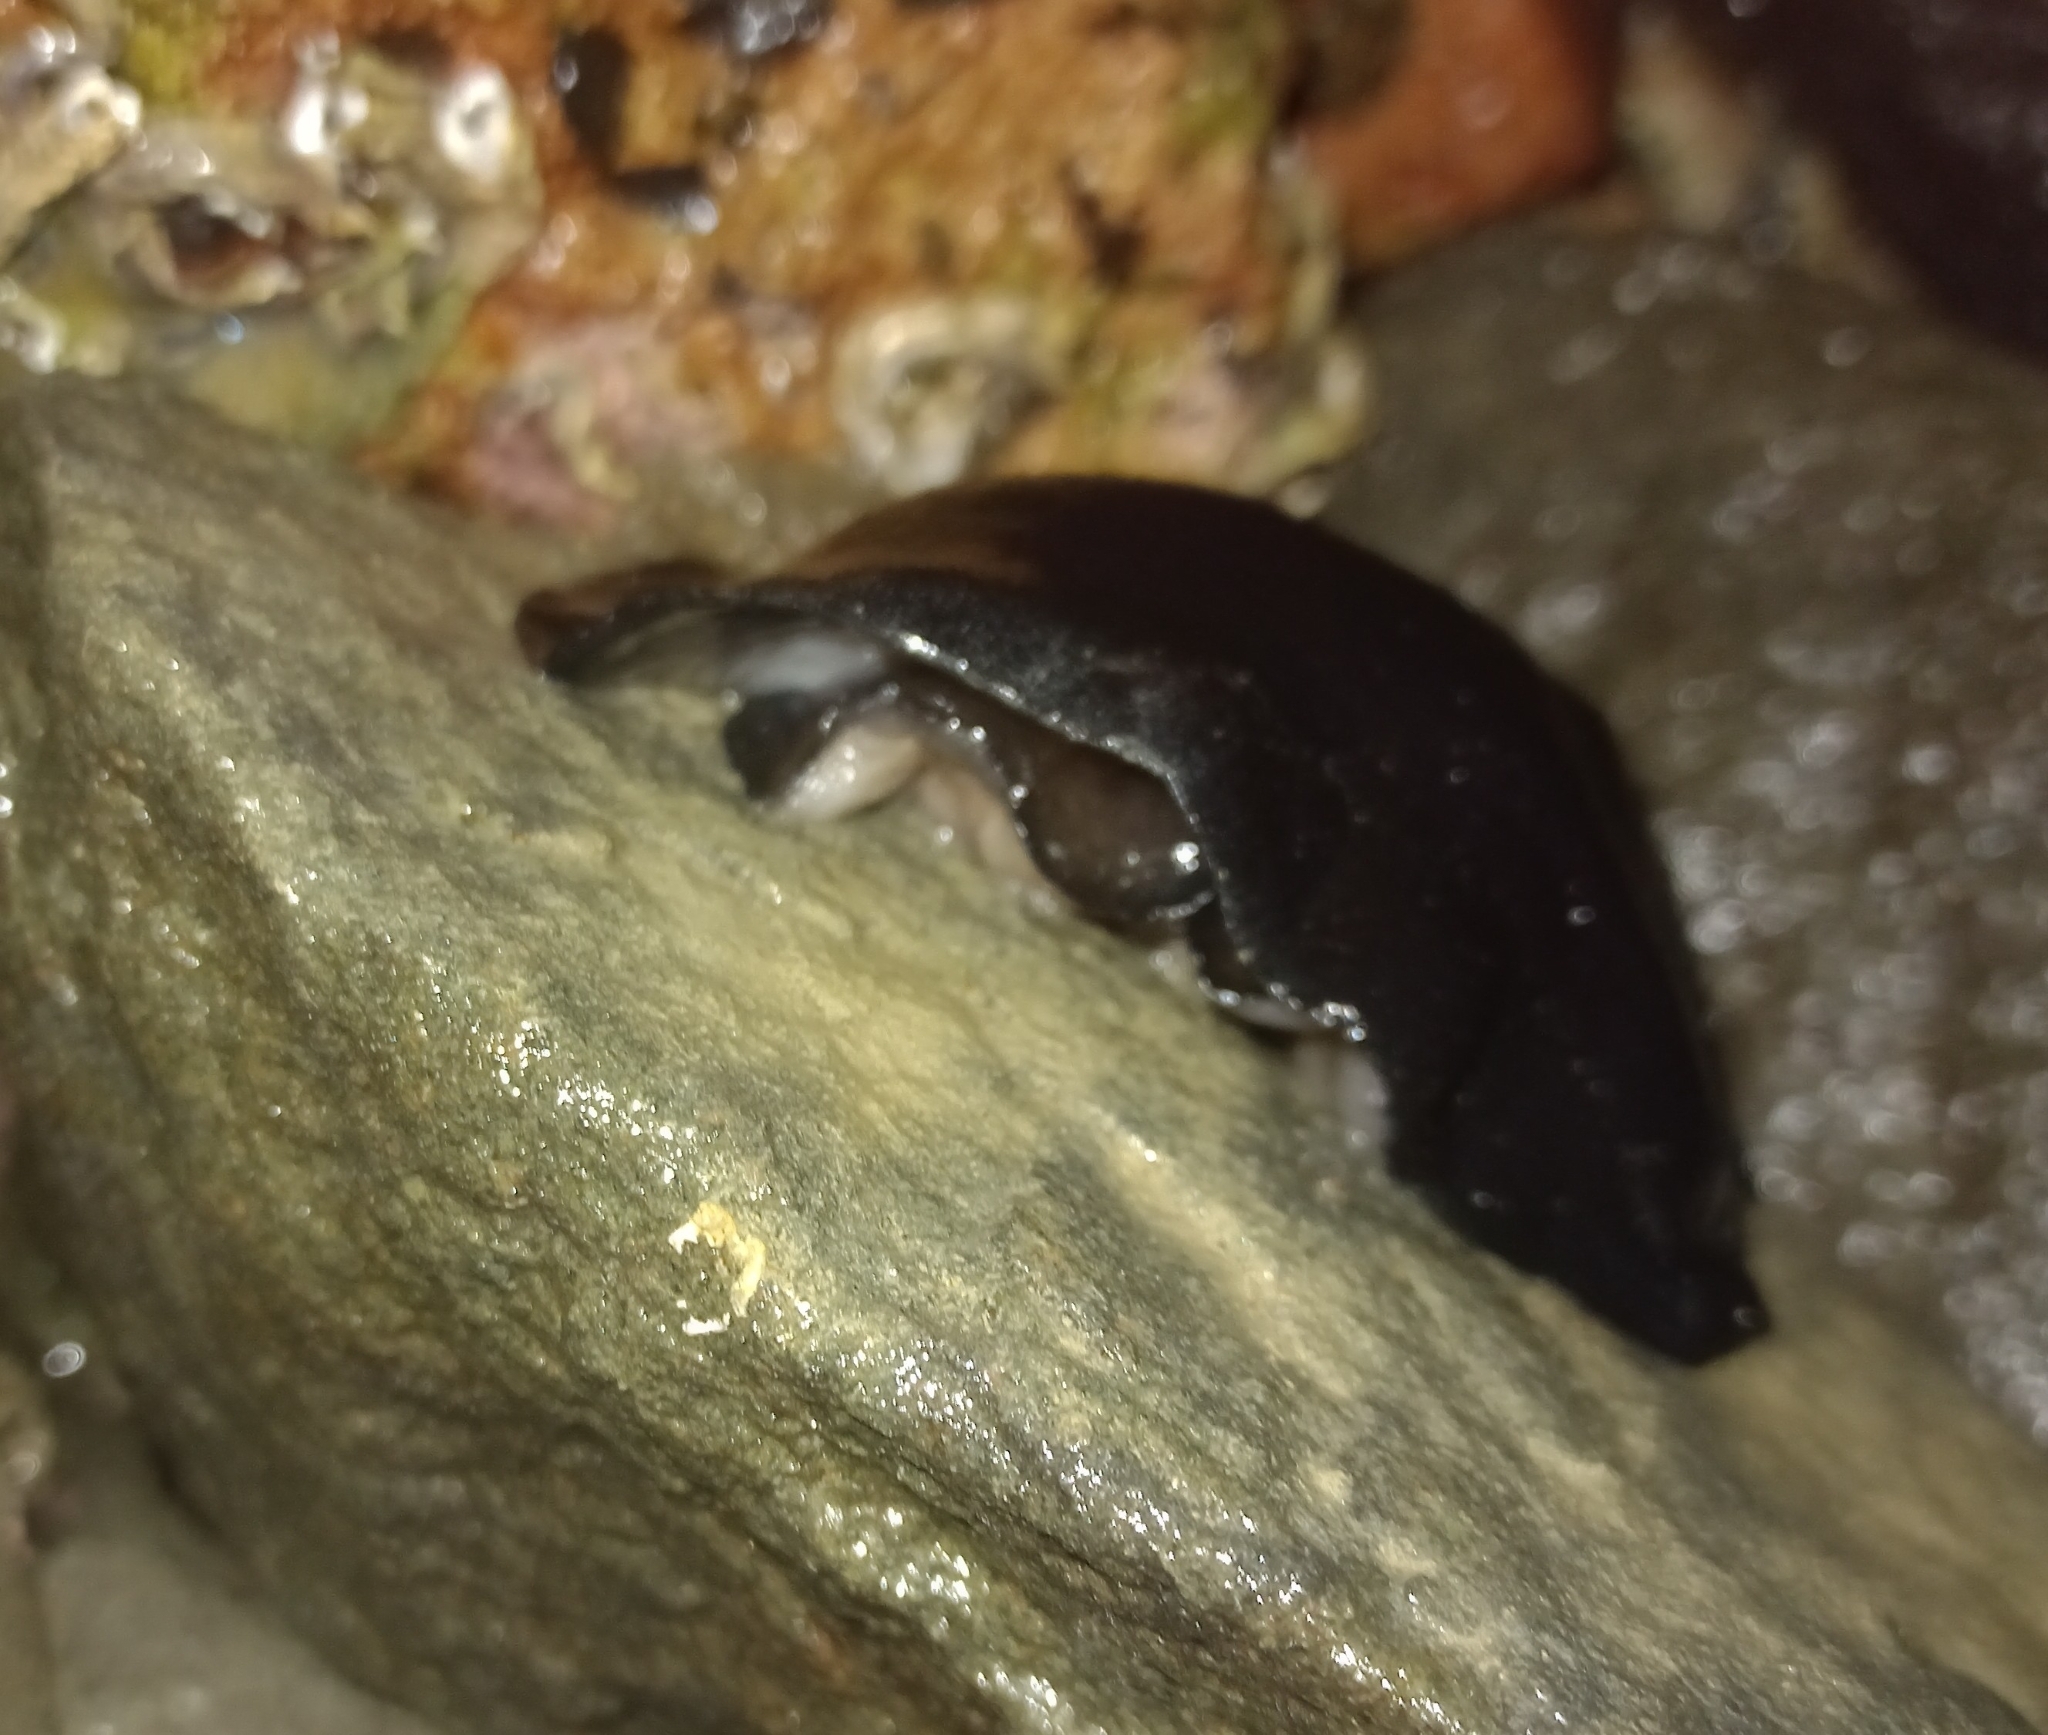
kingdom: Animalia
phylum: Mollusca
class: Gastropoda
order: Lepetellida
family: Fissurellidae
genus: Scutus
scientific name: Scutus breviculus
